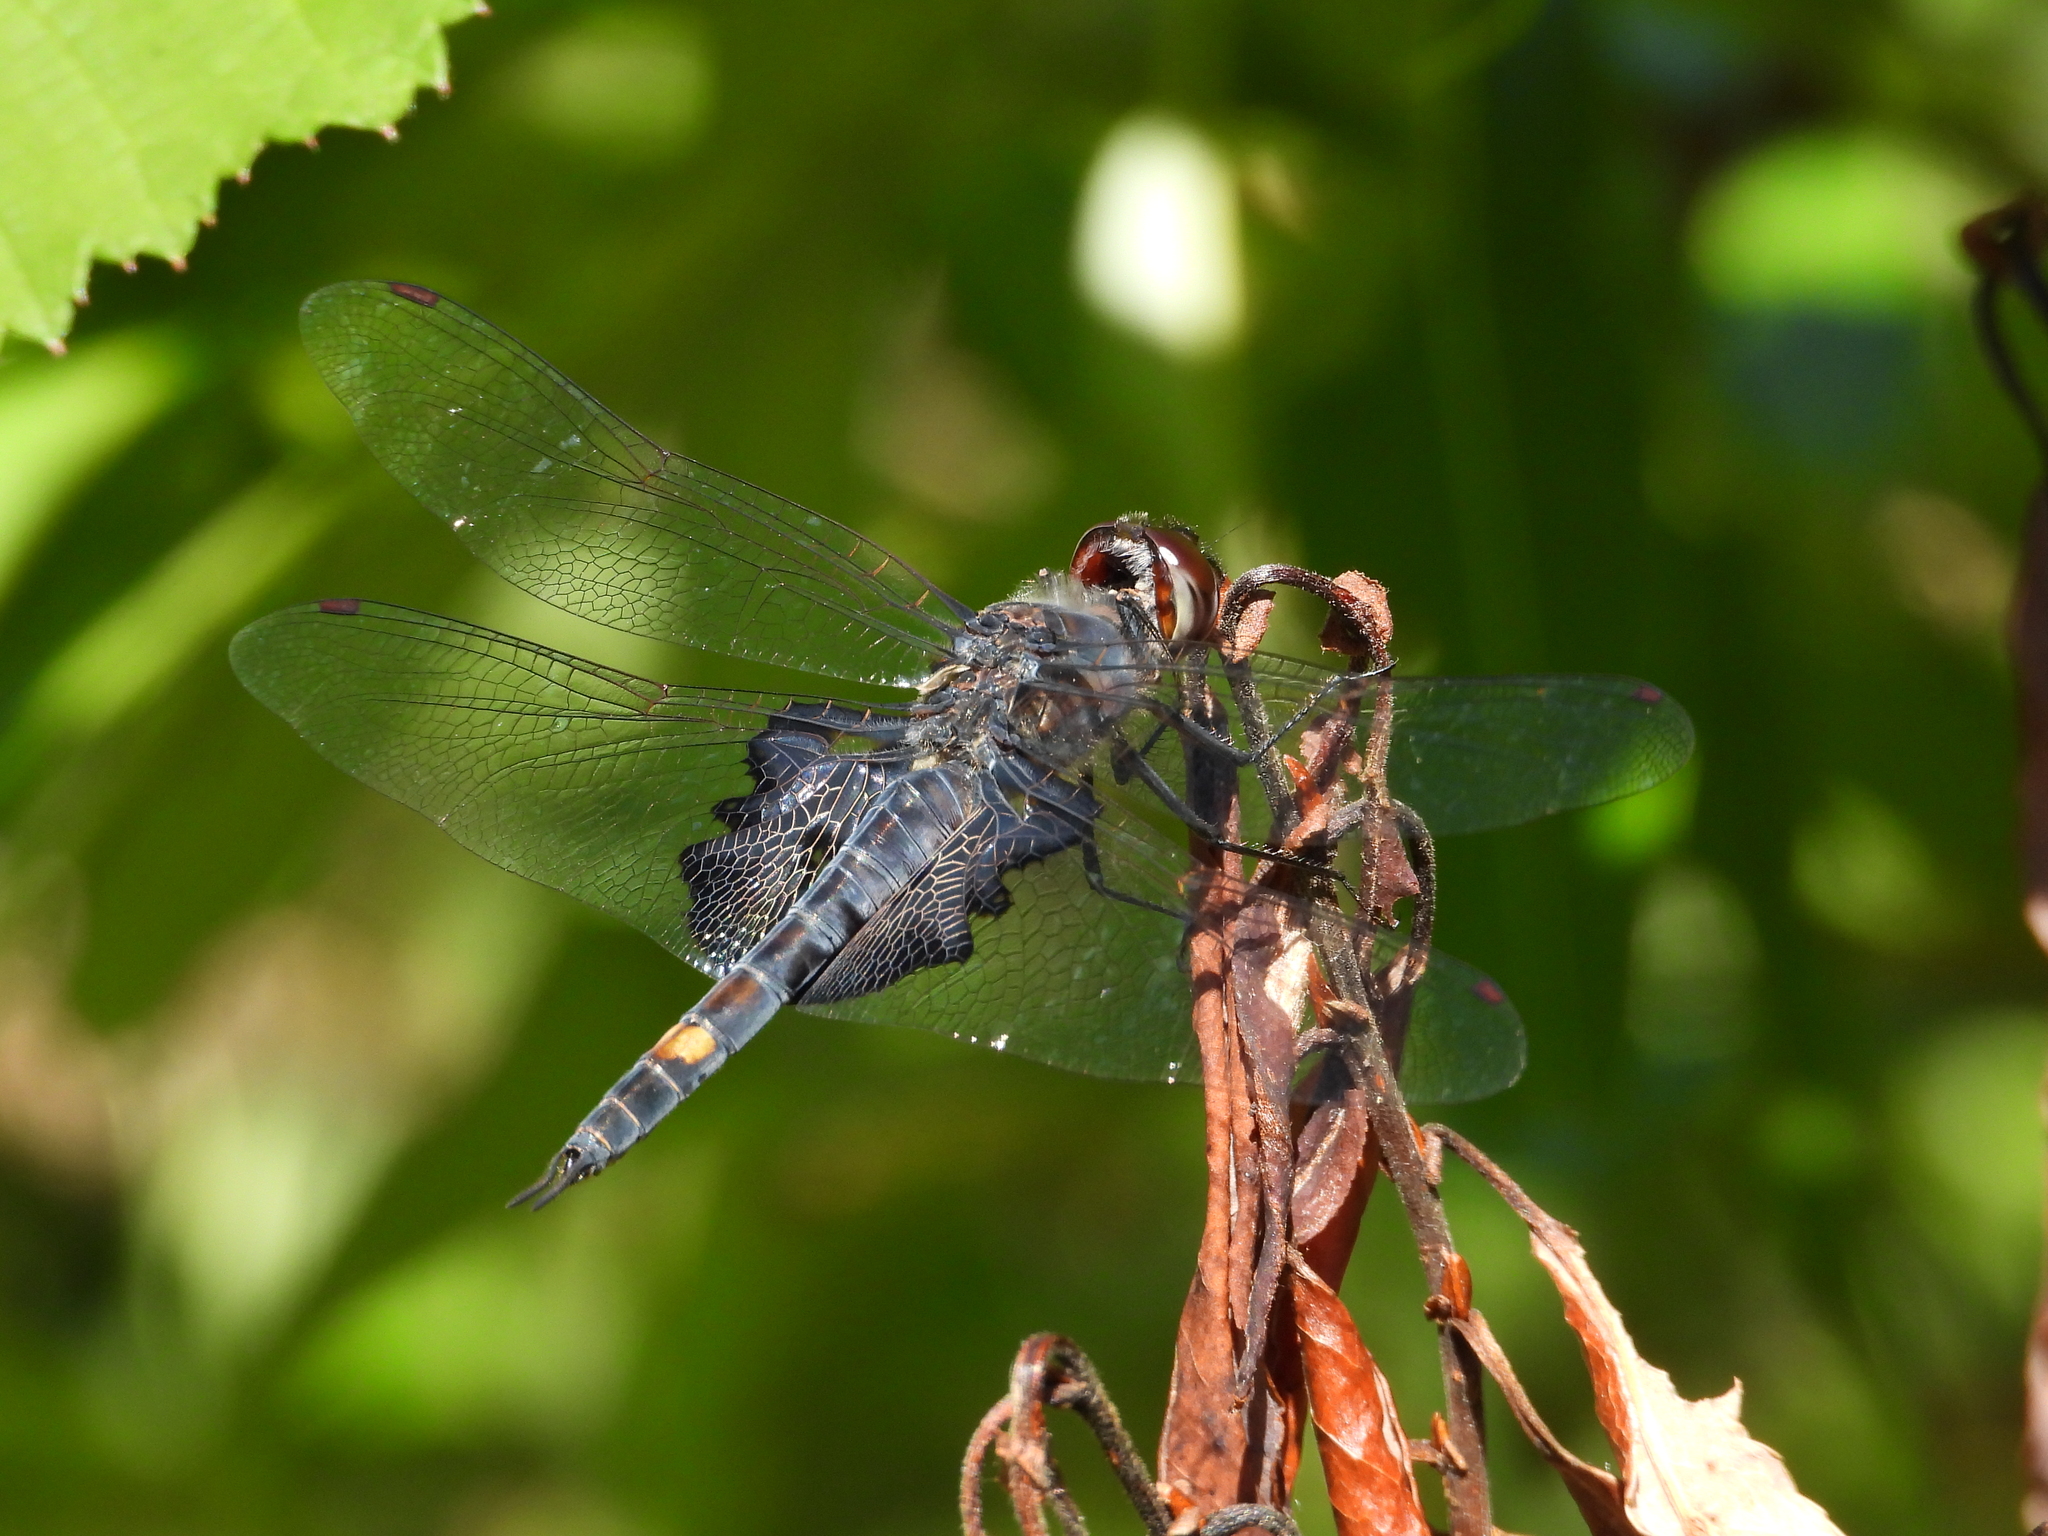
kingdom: Animalia
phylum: Arthropoda
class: Insecta
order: Odonata
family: Libellulidae
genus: Tramea
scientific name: Tramea lacerata
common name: Black saddlebags
